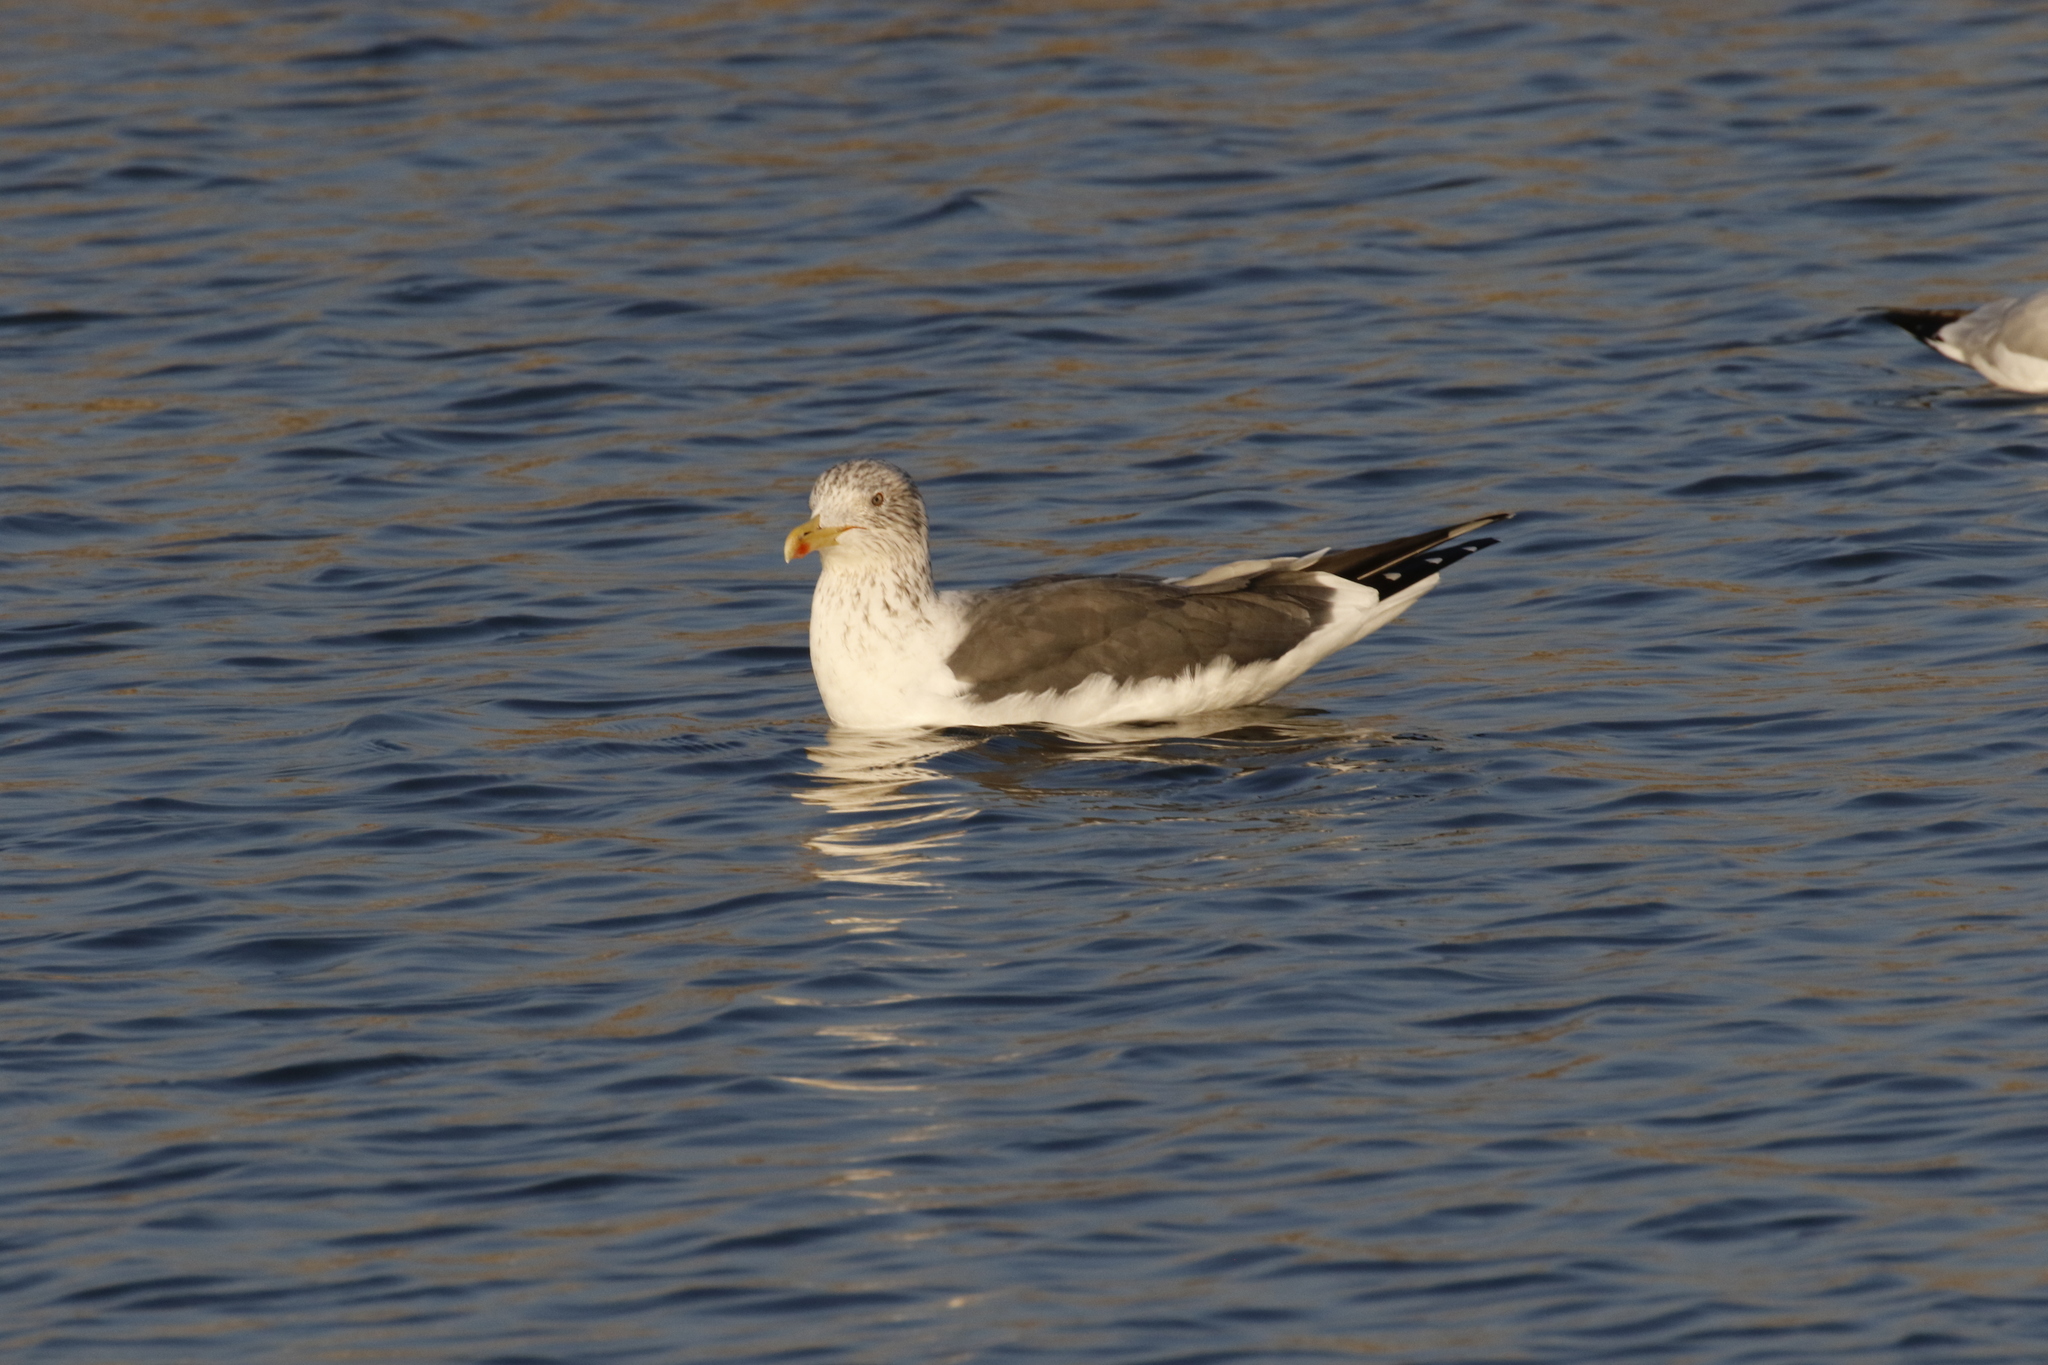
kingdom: Animalia
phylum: Chordata
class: Aves
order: Charadriiformes
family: Laridae
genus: Larus
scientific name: Larus fuscus
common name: Lesser black-backed gull
